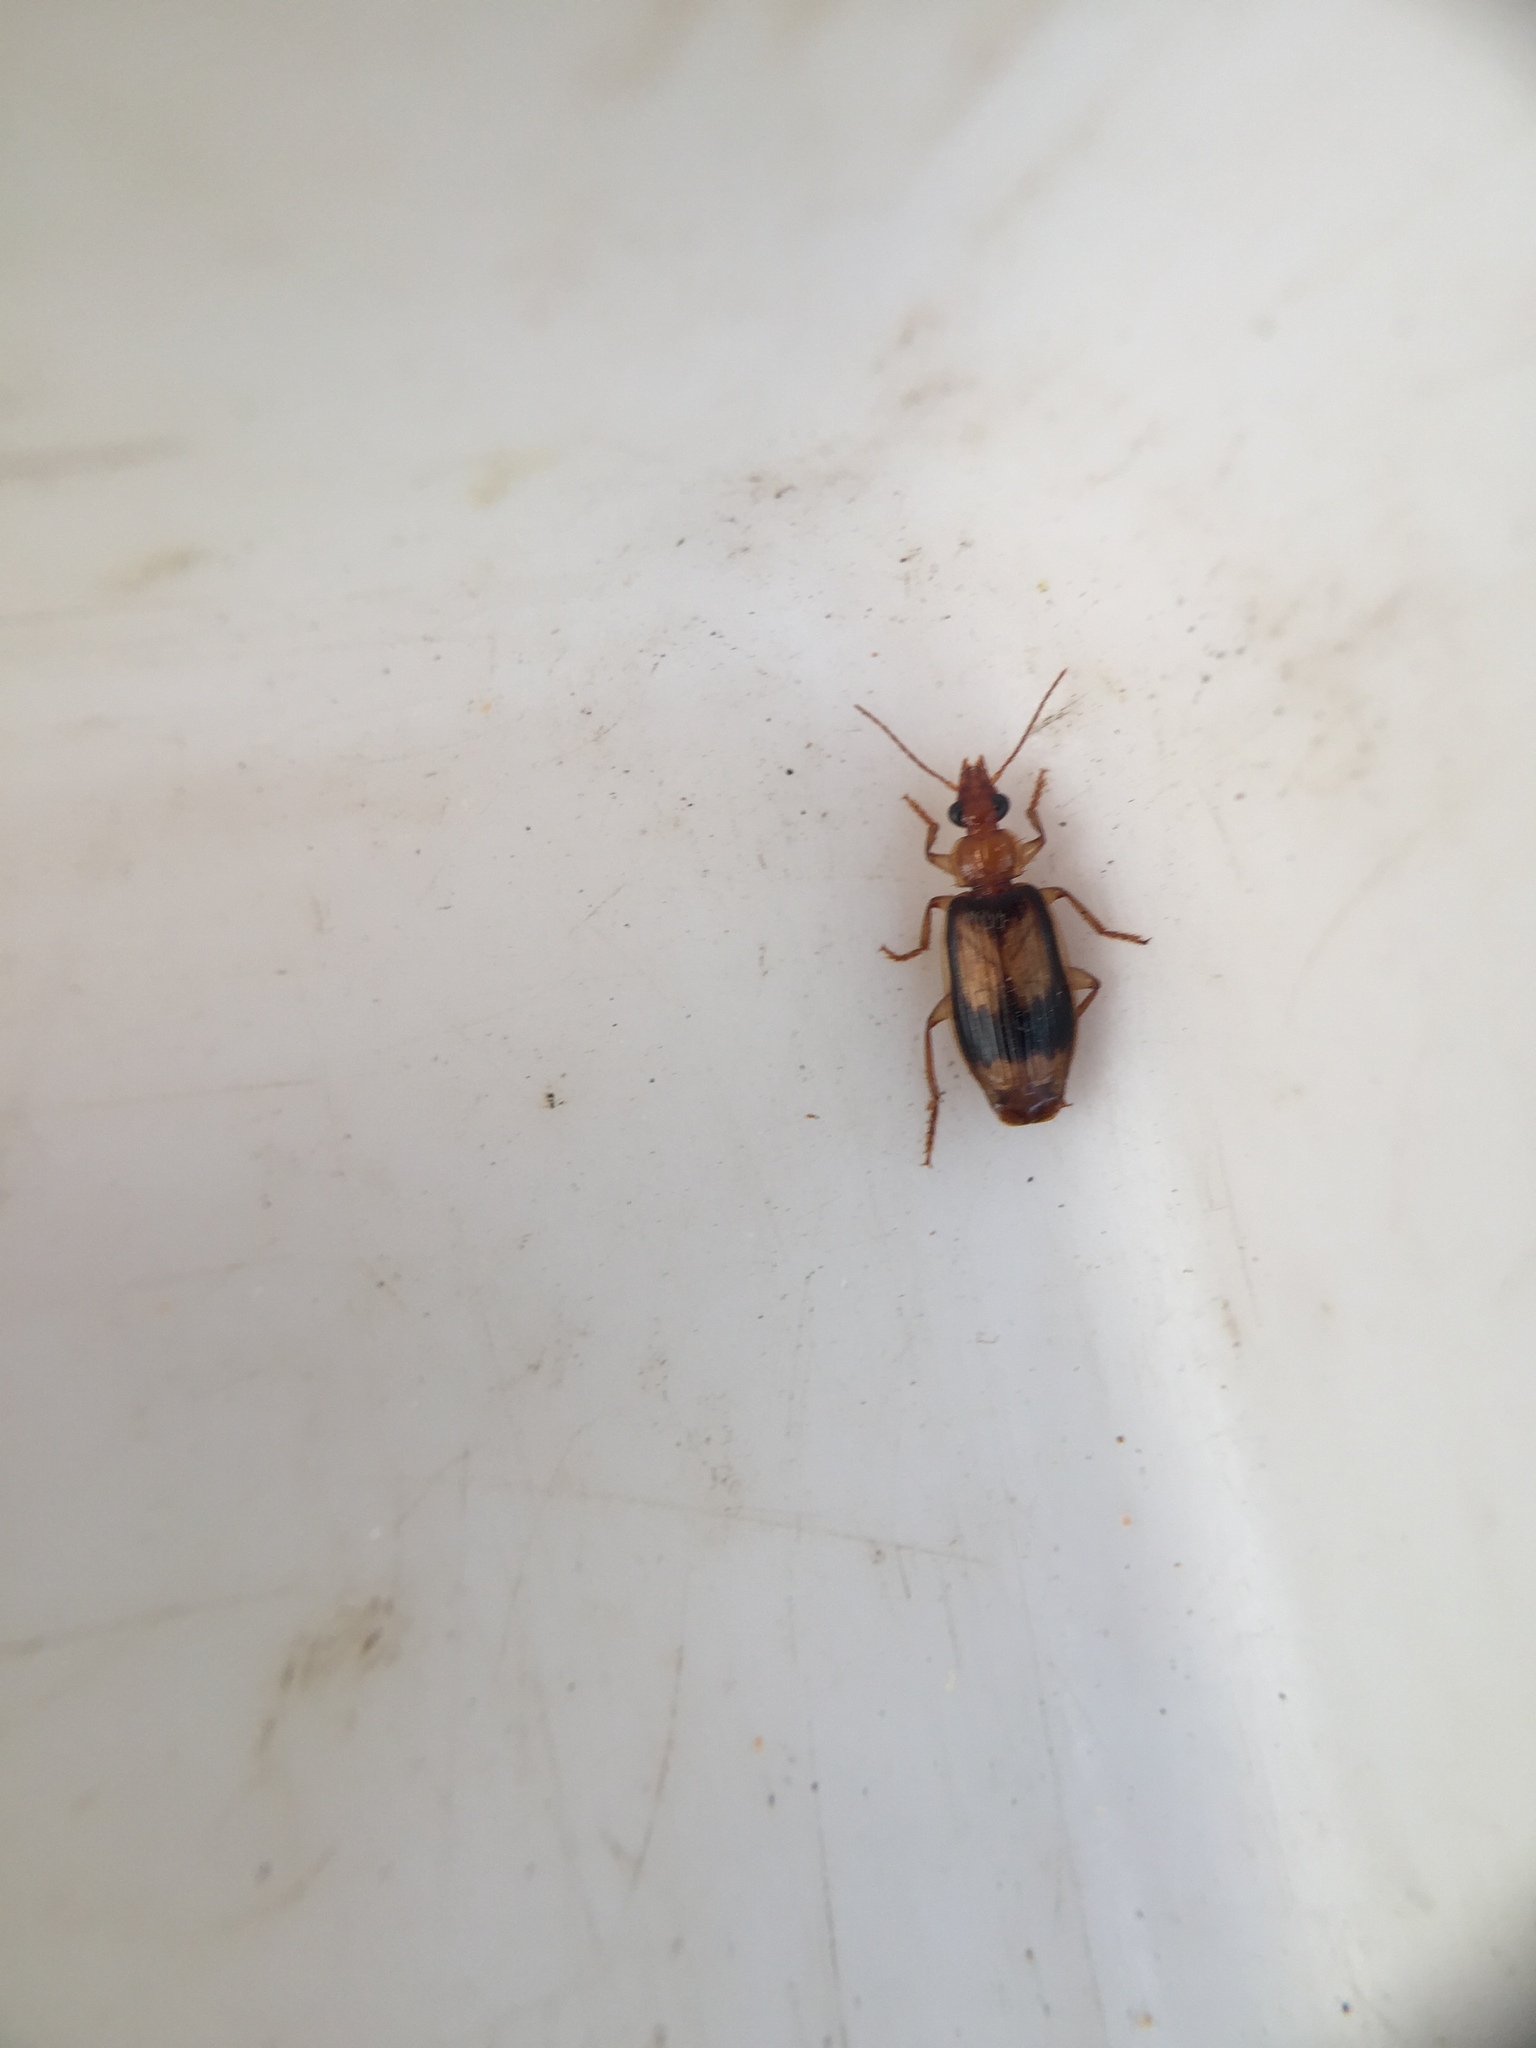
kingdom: Animalia
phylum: Arthropoda
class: Insecta
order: Coleoptera
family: Carabidae
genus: Trigonothops
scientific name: Trigonothops pacificus
